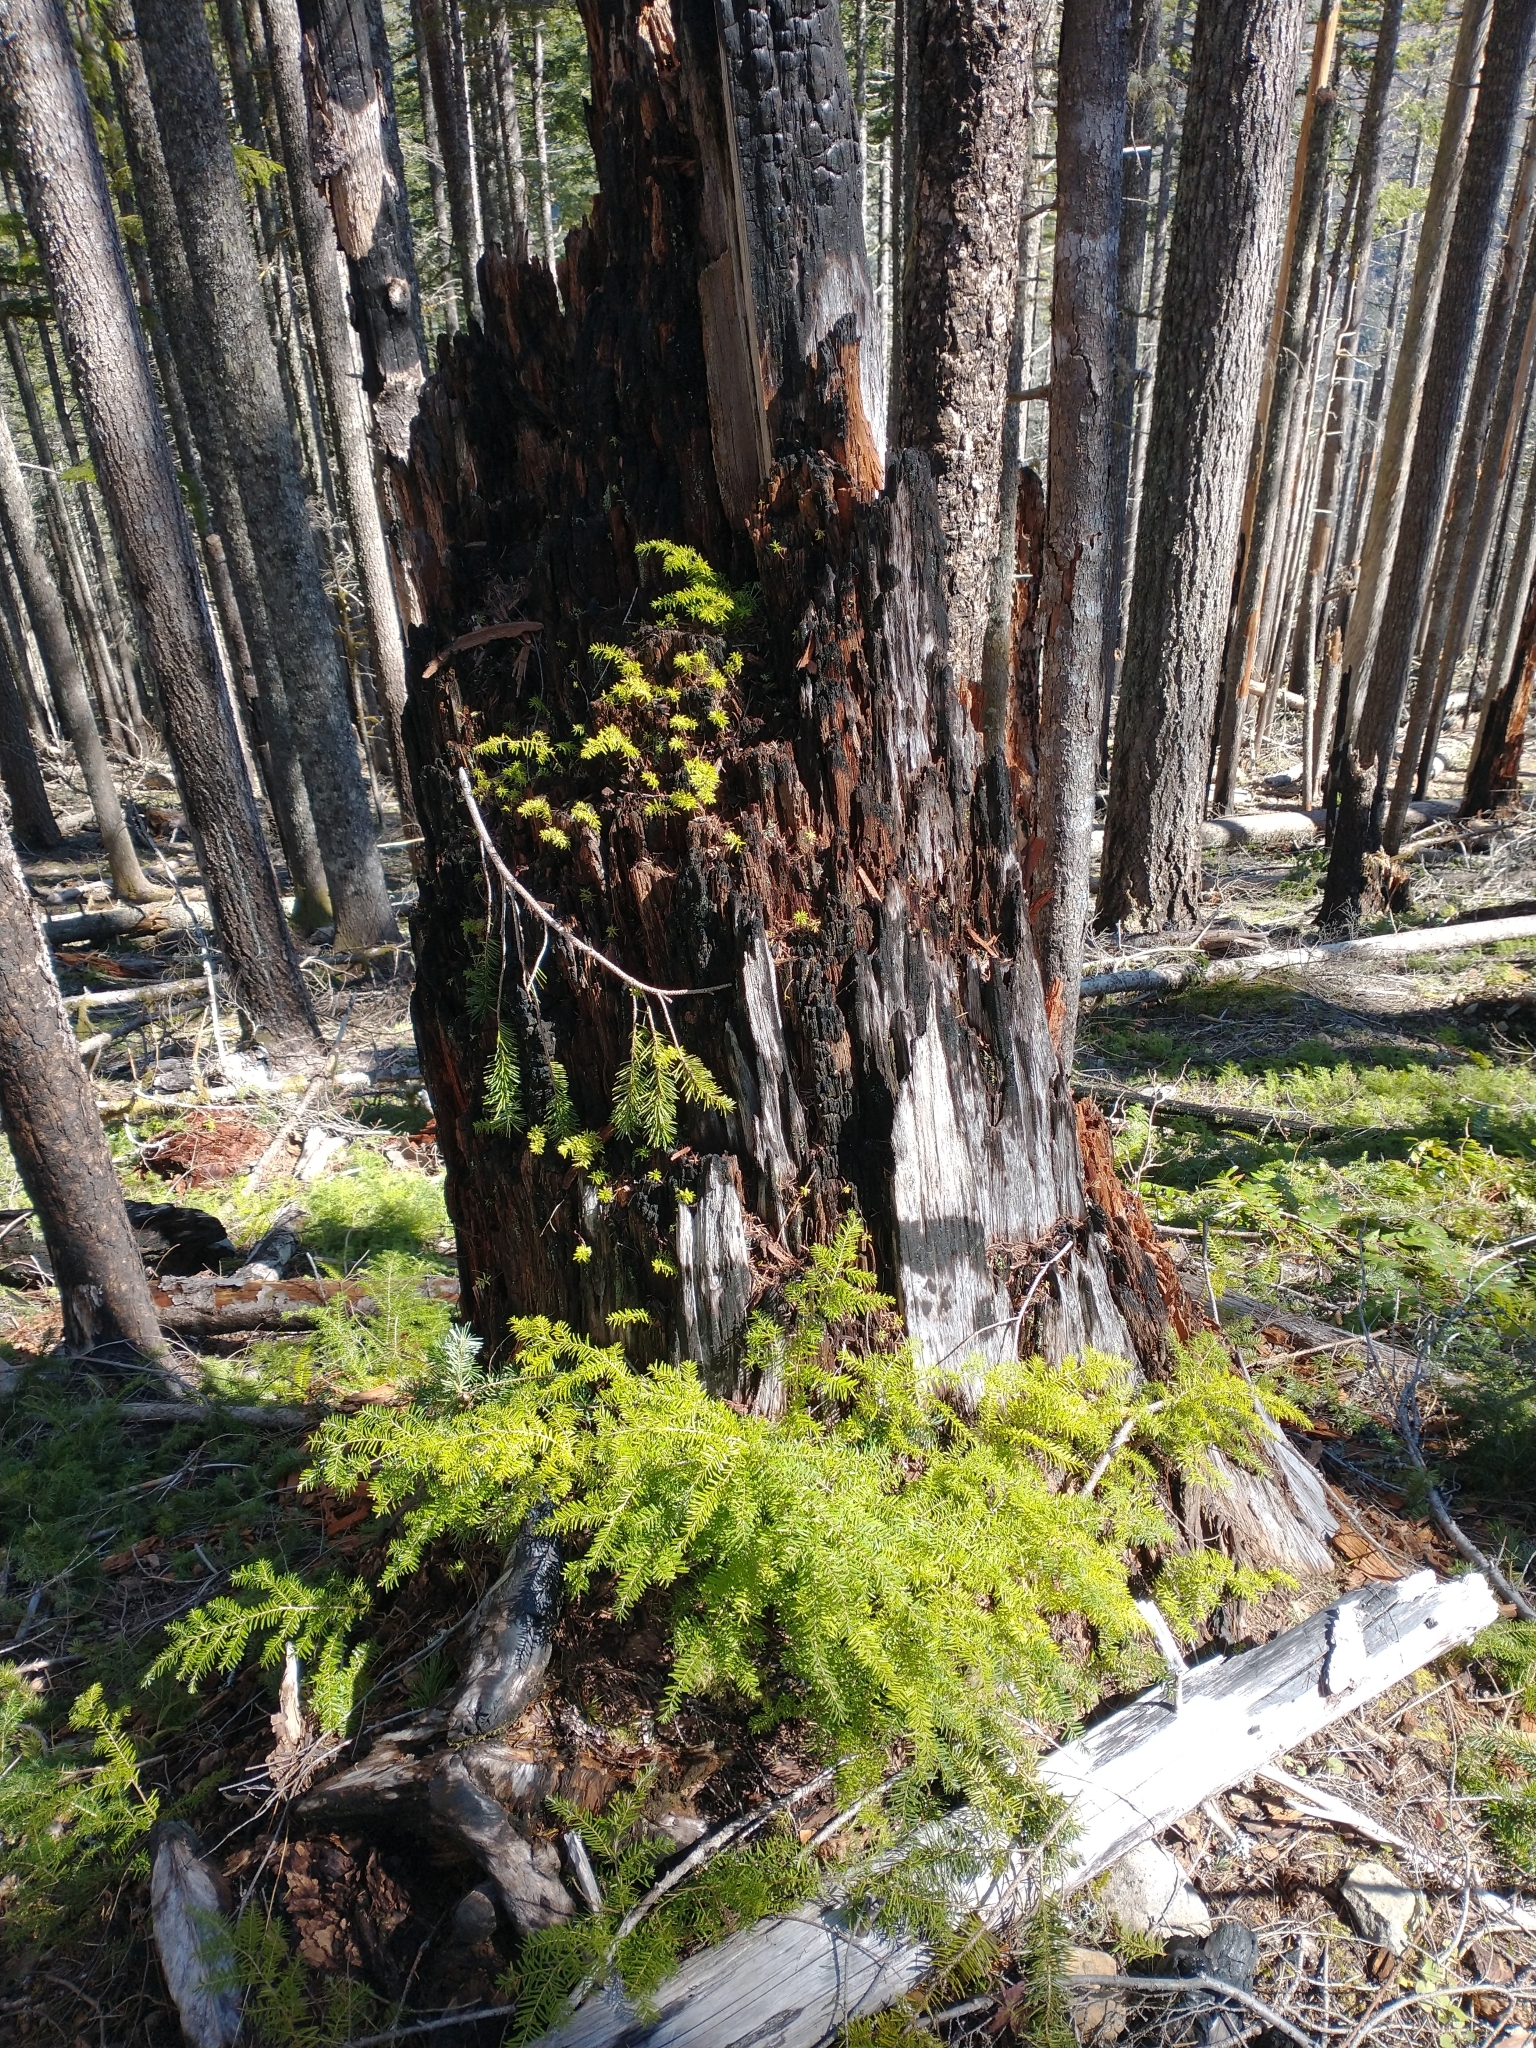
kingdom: Plantae
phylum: Tracheophyta
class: Pinopsida
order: Pinales
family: Pinaceae
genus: Tsuga
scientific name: Tsuga heterophylla
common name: Western hemlock
